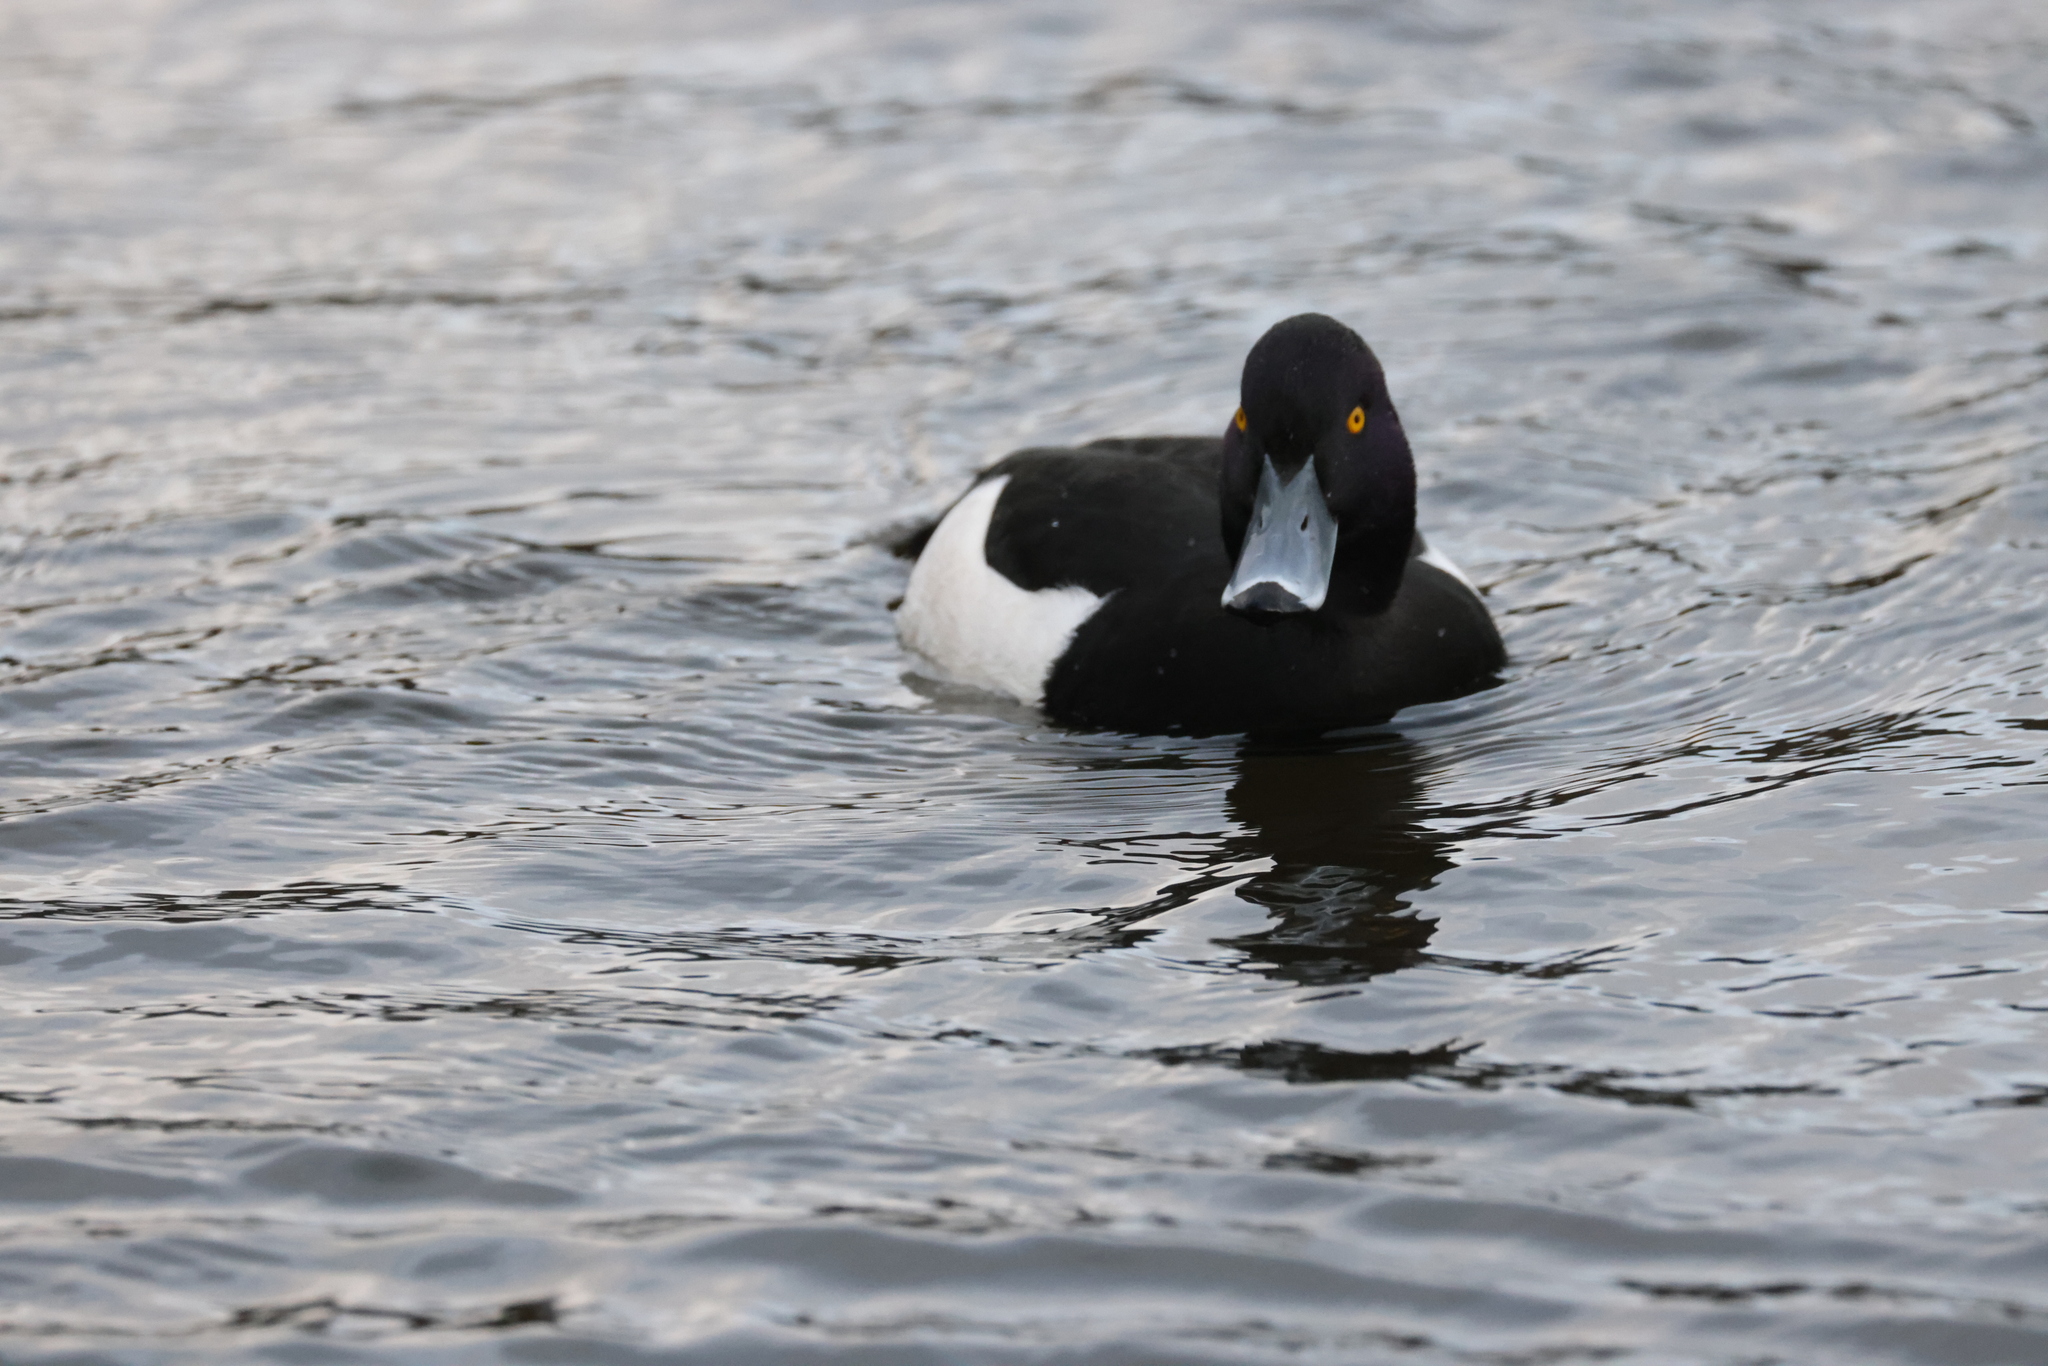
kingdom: Animalia
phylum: Chordata
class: Aves
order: Anseriformes
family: Anatidae
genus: Aythya
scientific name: Aythya fuligula
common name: Tufted duck
